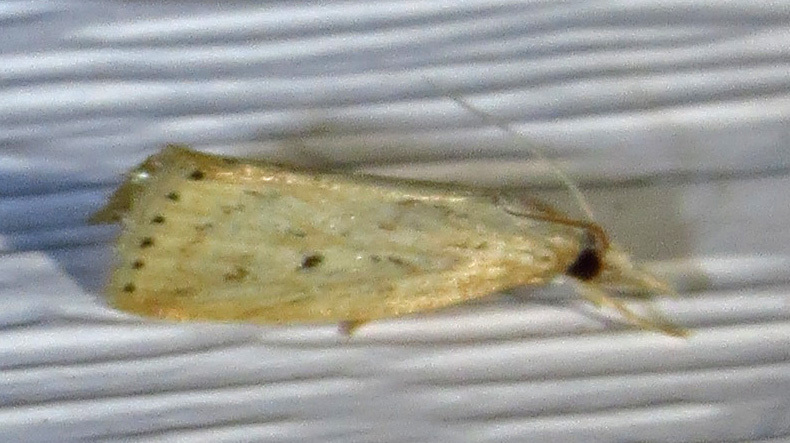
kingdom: Animalia
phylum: Arthropoda
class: Insecta
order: Lepidoptera
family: Crambidae
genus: Diatraea
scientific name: Diatraea lisetta
